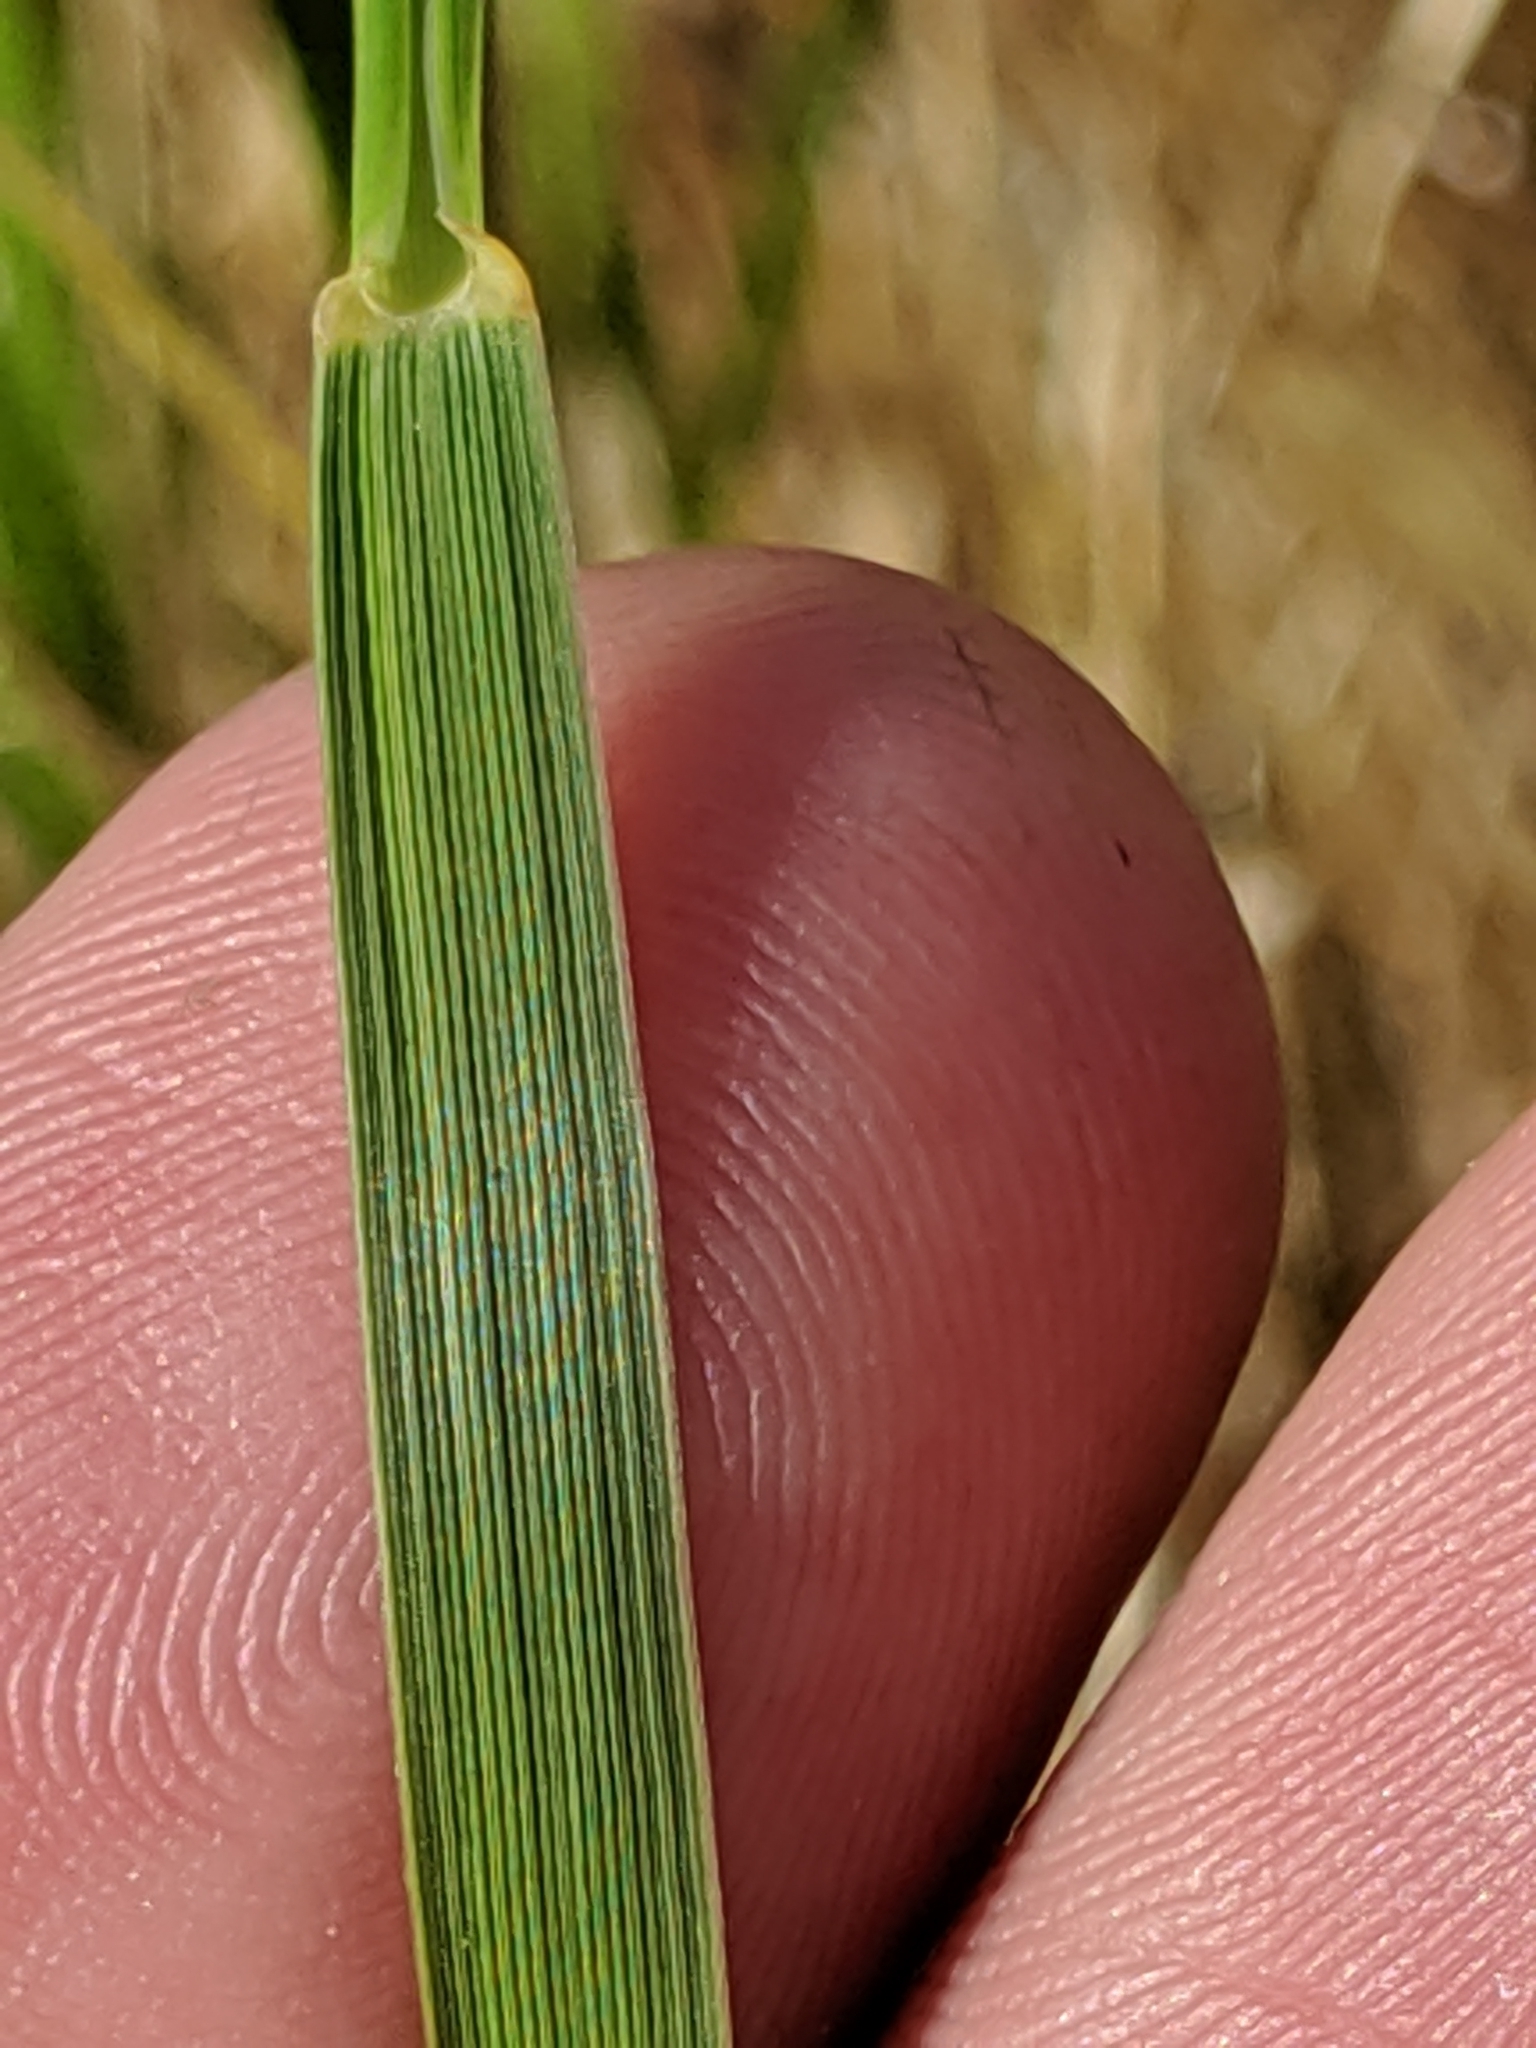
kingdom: Plantae
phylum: Tracheophyta
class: Liliopsida
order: Poales
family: Poaceae
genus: Elymus
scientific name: Elymus glaucus
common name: Blue wild rye
